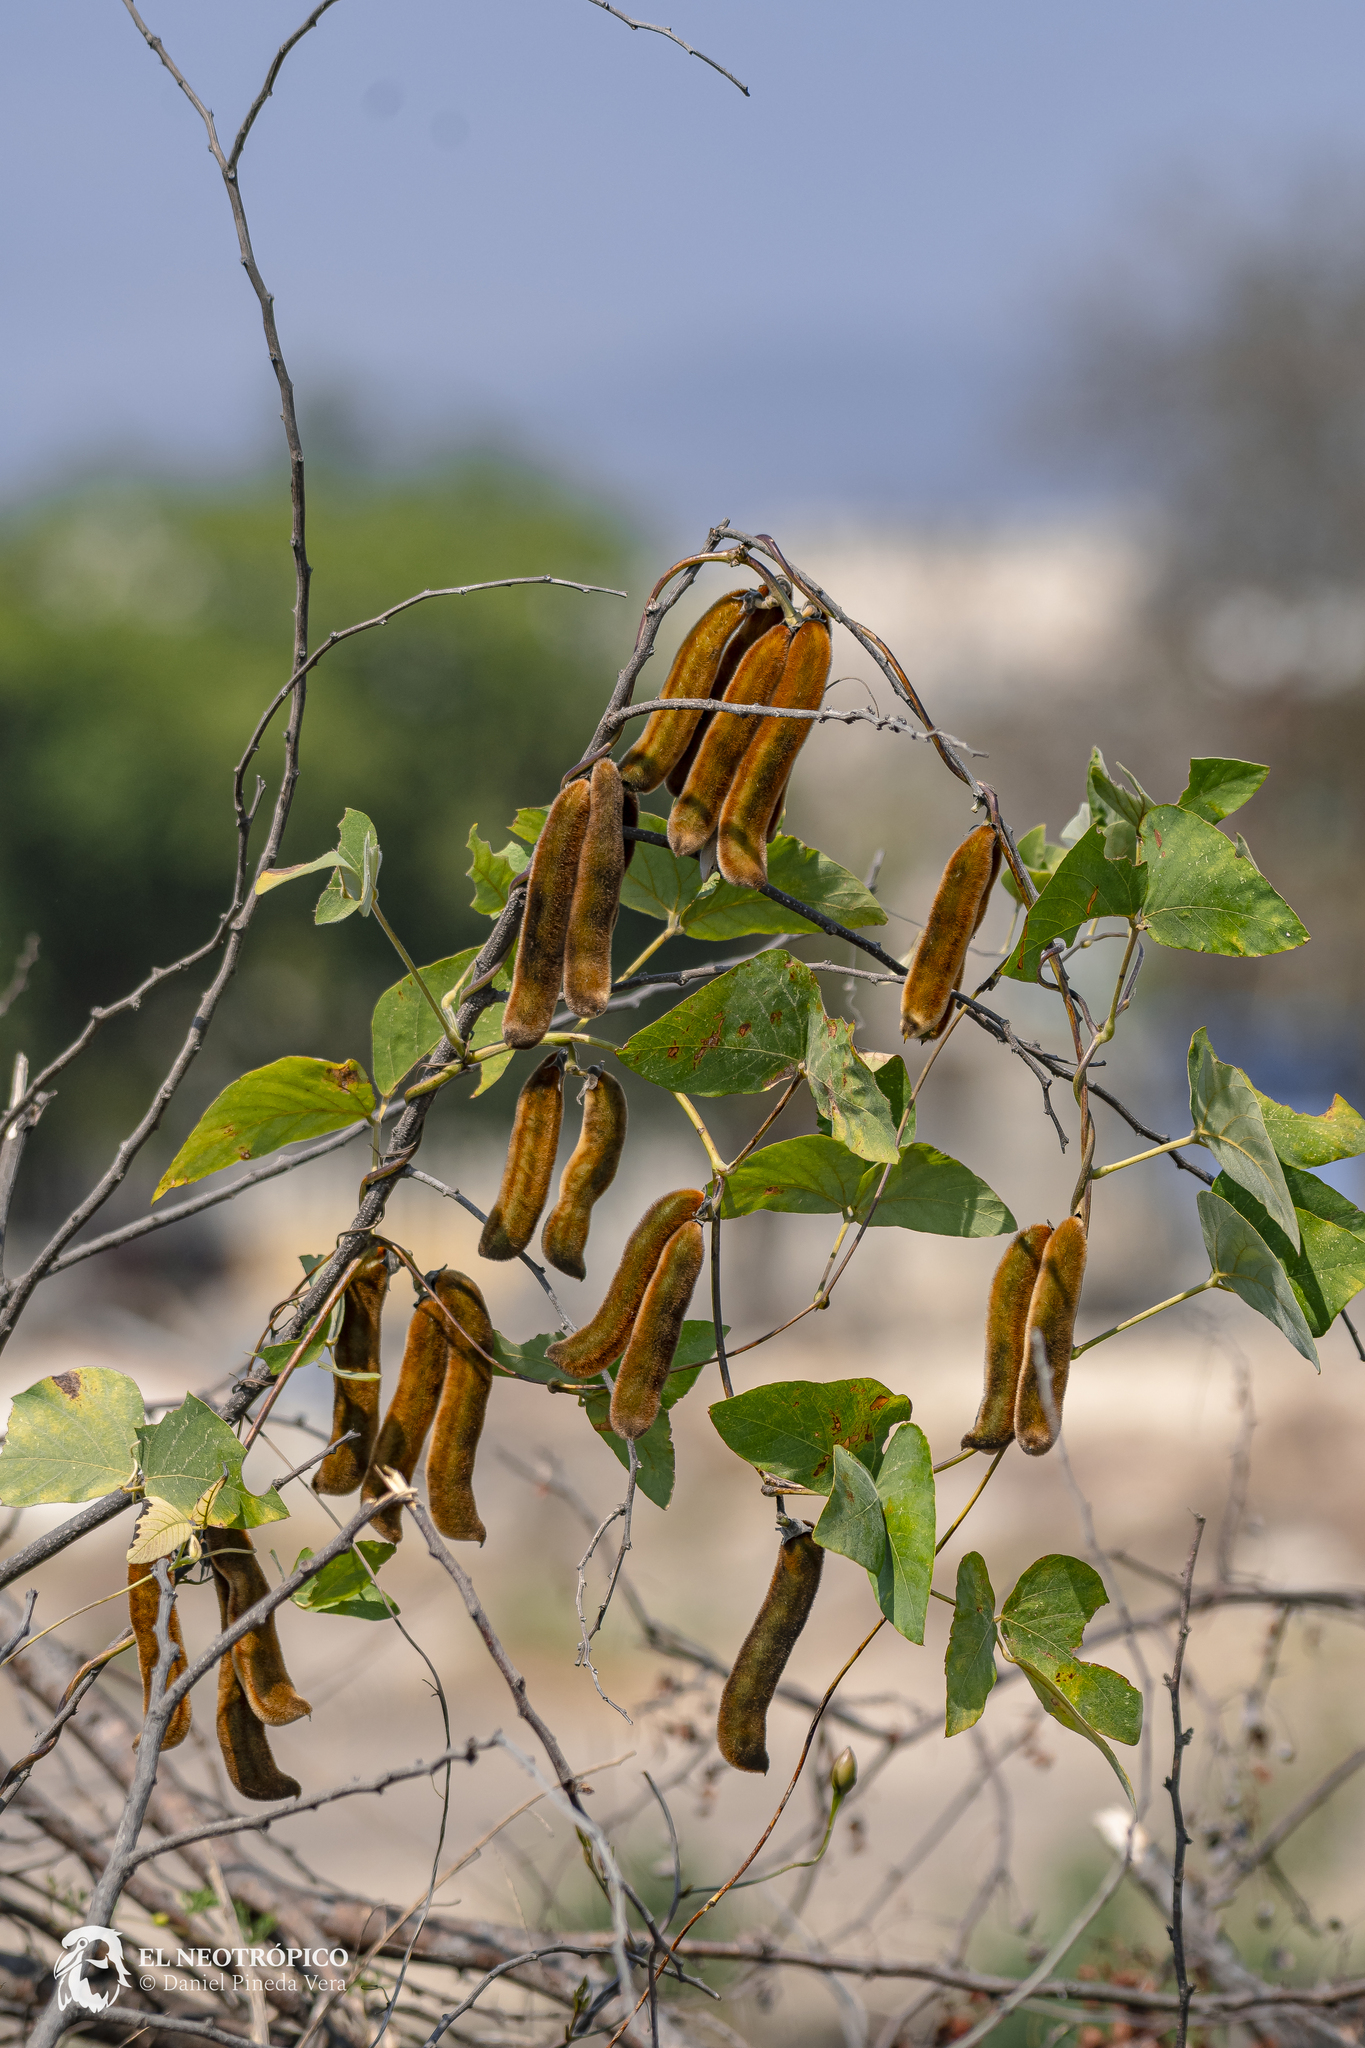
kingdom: Plantae
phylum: Tracheophyta
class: Magnoliopsida
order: Fabales
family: Fabaceae
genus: Mucuna
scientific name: Mucuna pruriens
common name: Cow-itch
